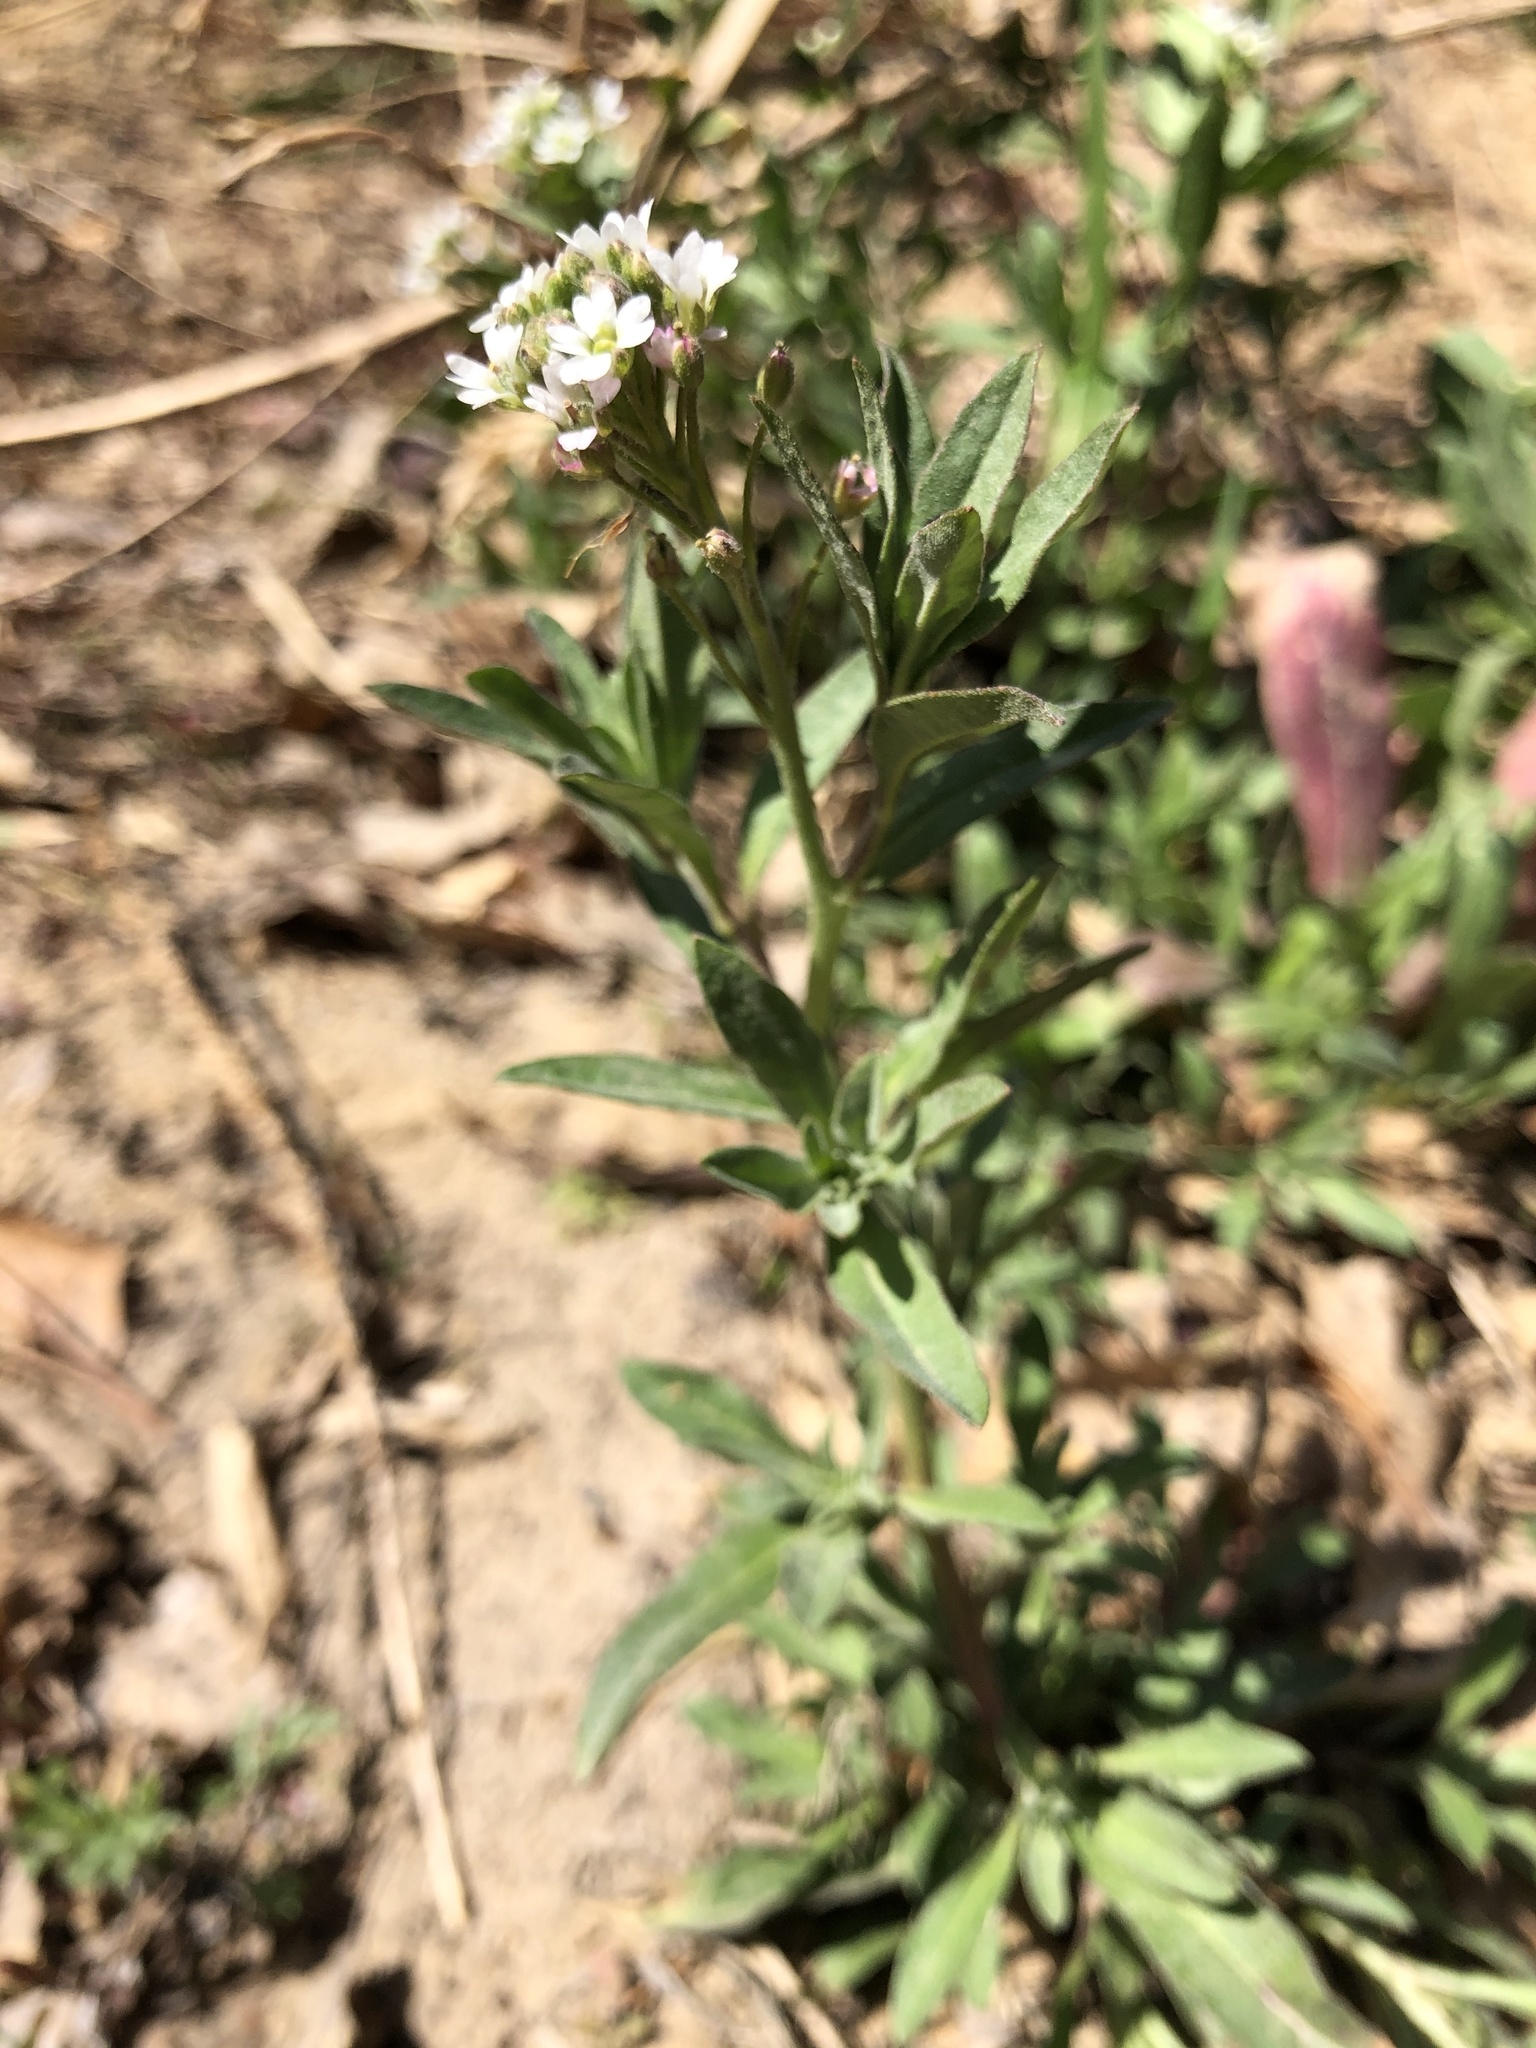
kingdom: Plantae
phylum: Tracheophyta
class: Magnoliopsida
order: Brassicales
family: Brassicaceae
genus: Berteroa
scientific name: Berteroa incana
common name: Hoary alison
